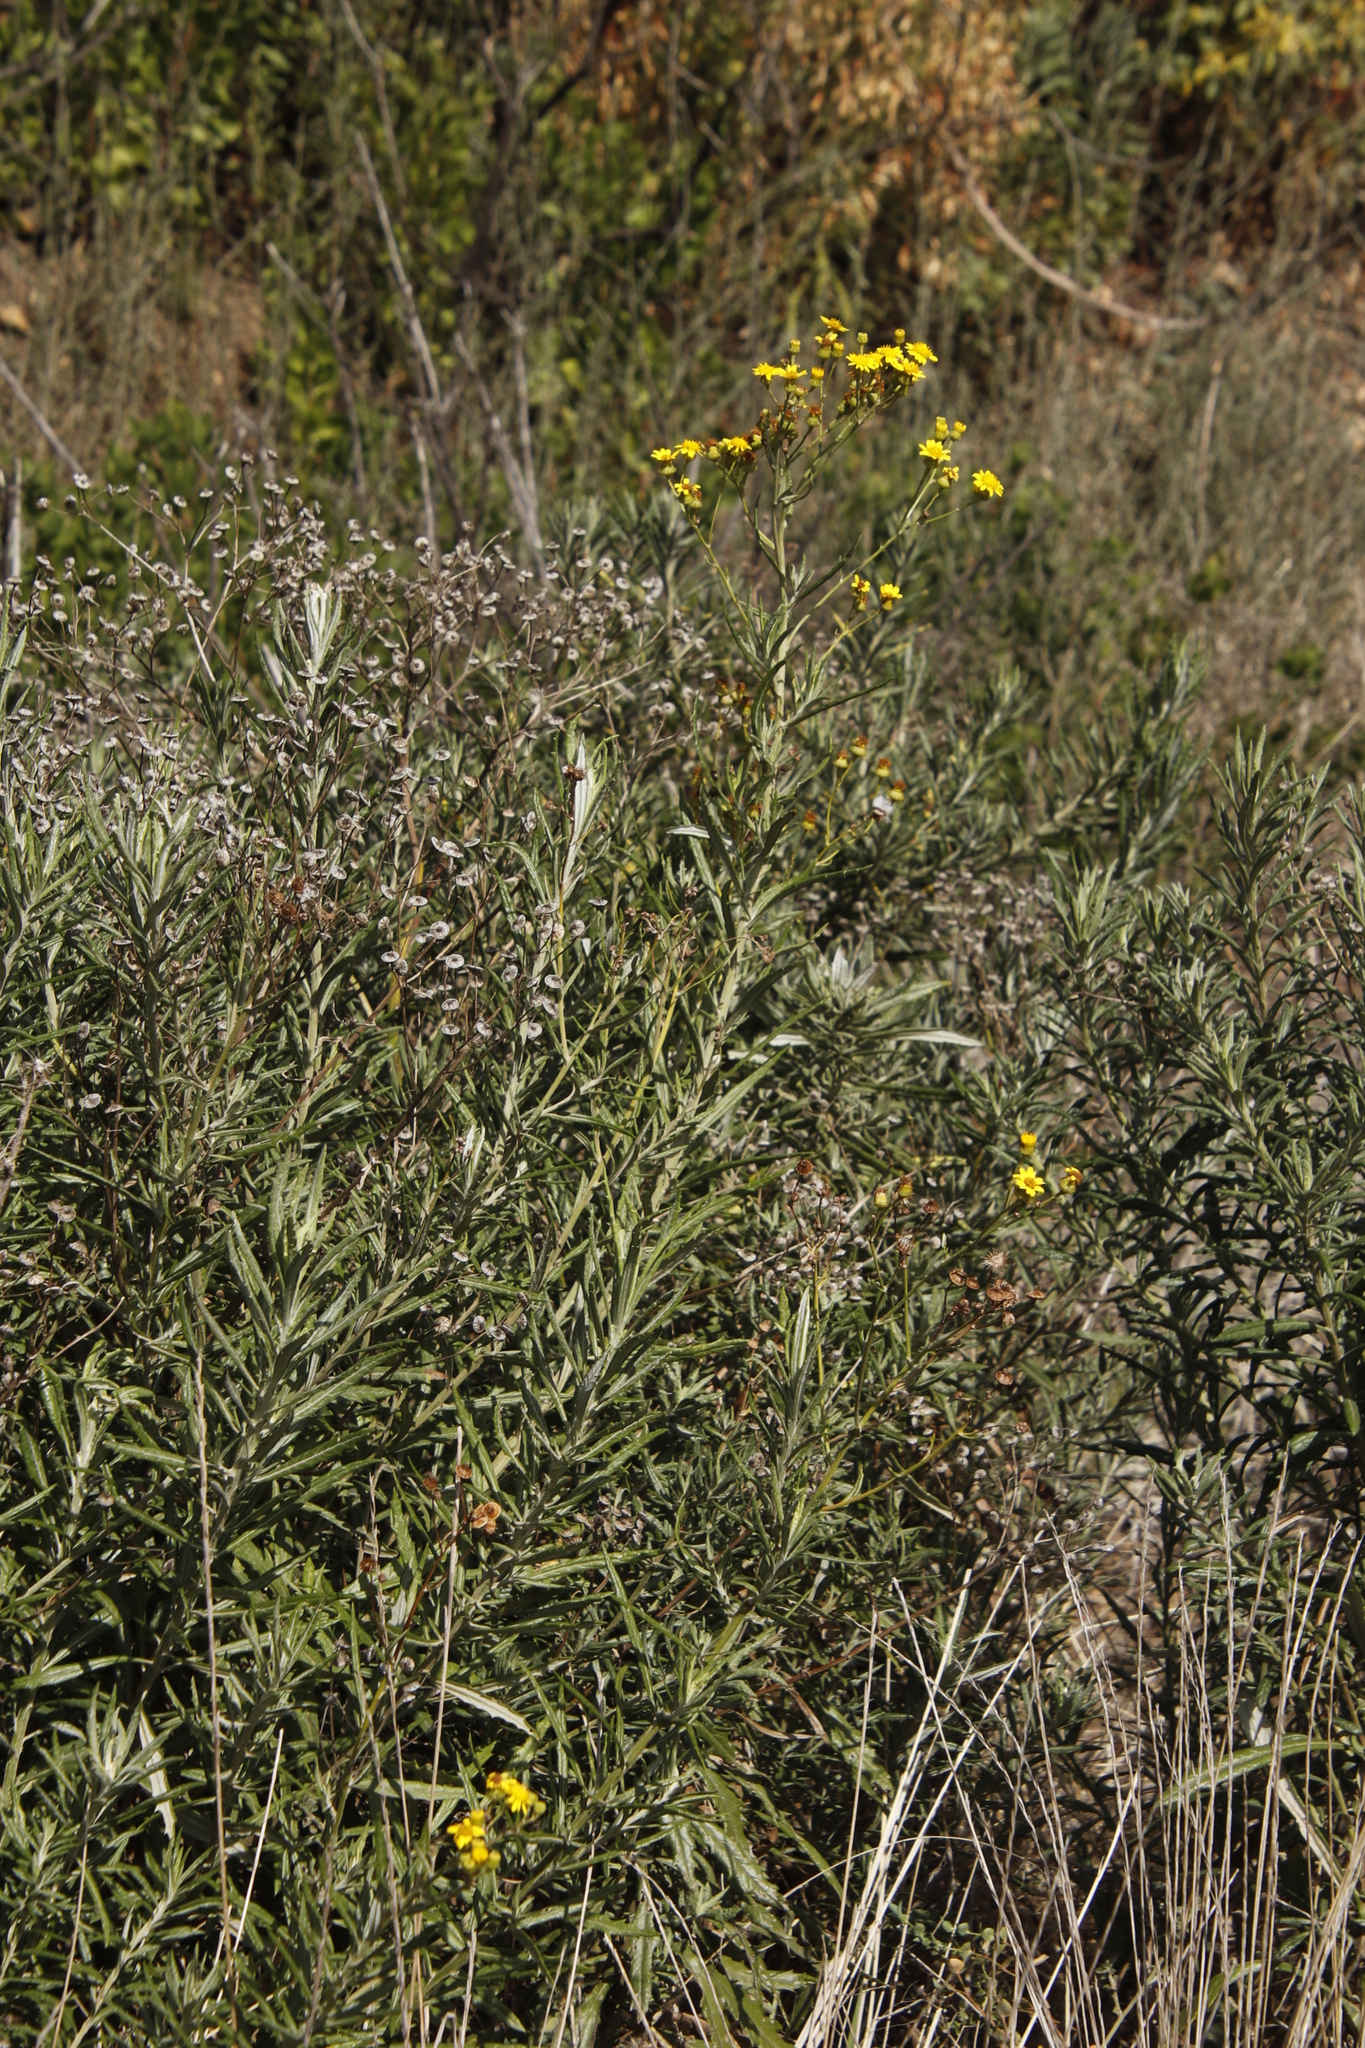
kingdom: Plantae
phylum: Tracheophyta
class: Magnoliopsida
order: Asterales
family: Asteraceae
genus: Senecio
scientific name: Senecio pterophorus
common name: Shoddy ragwort
